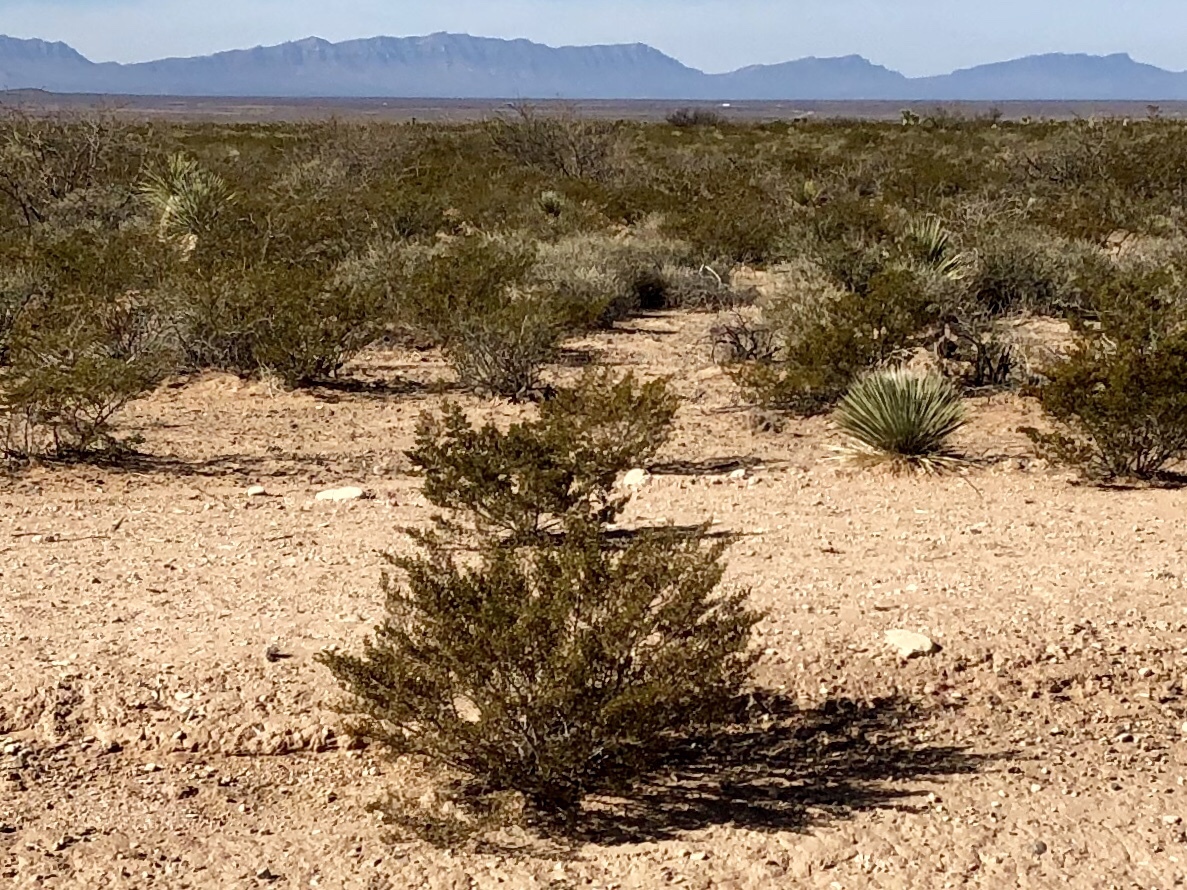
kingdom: Plantae
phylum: Tracheophyta
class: Magnoliopsida
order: Zygophyllales
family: Zygophyllaceae
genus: Larrea
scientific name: Larrea tridentata
